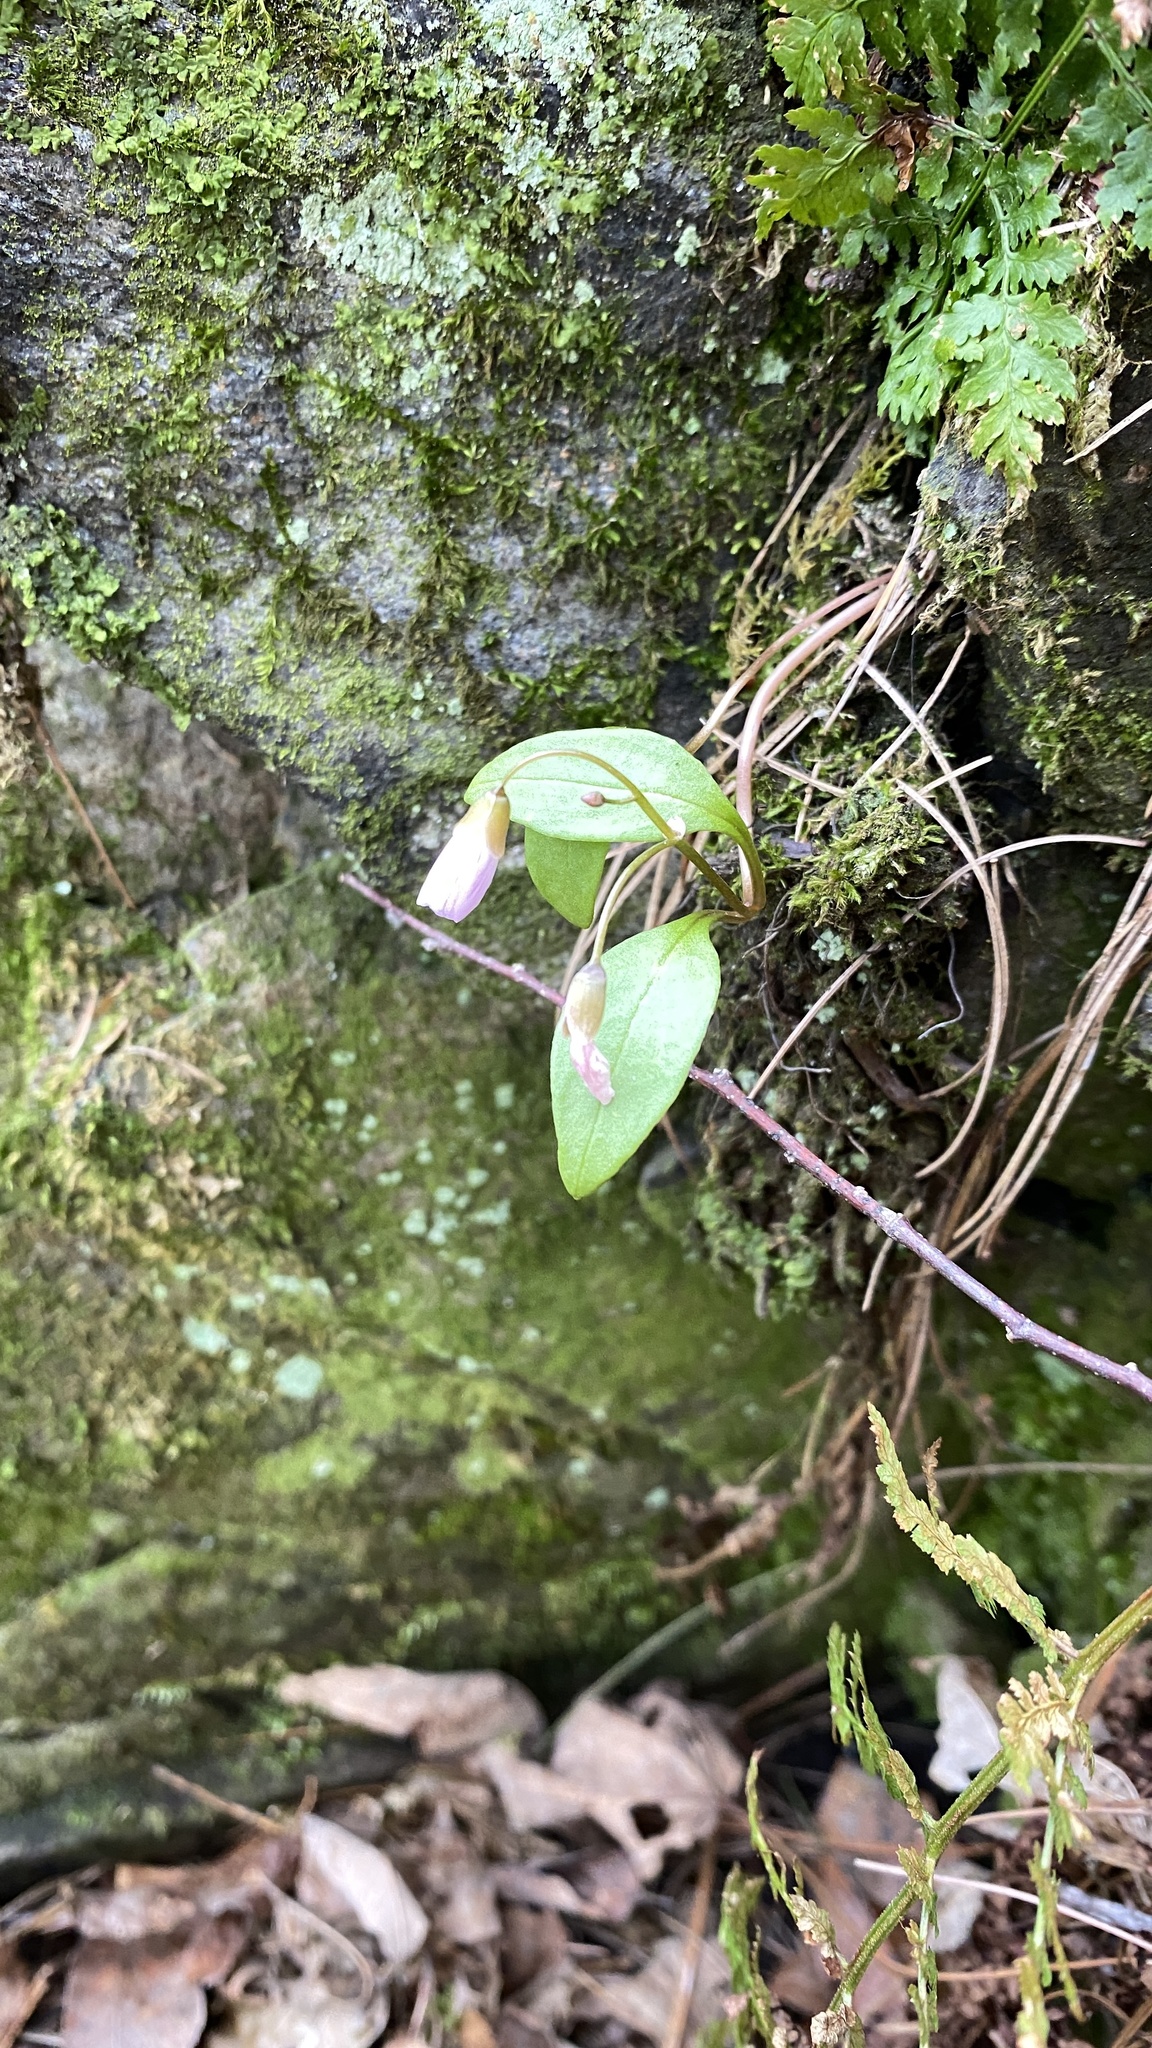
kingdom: Plantae
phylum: Tracheophyta
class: Magnoliopsida
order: Caryophyllales
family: Montiaceae
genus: Claytonia
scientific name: Claytonia caroliniana
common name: Carolina spring beauty
